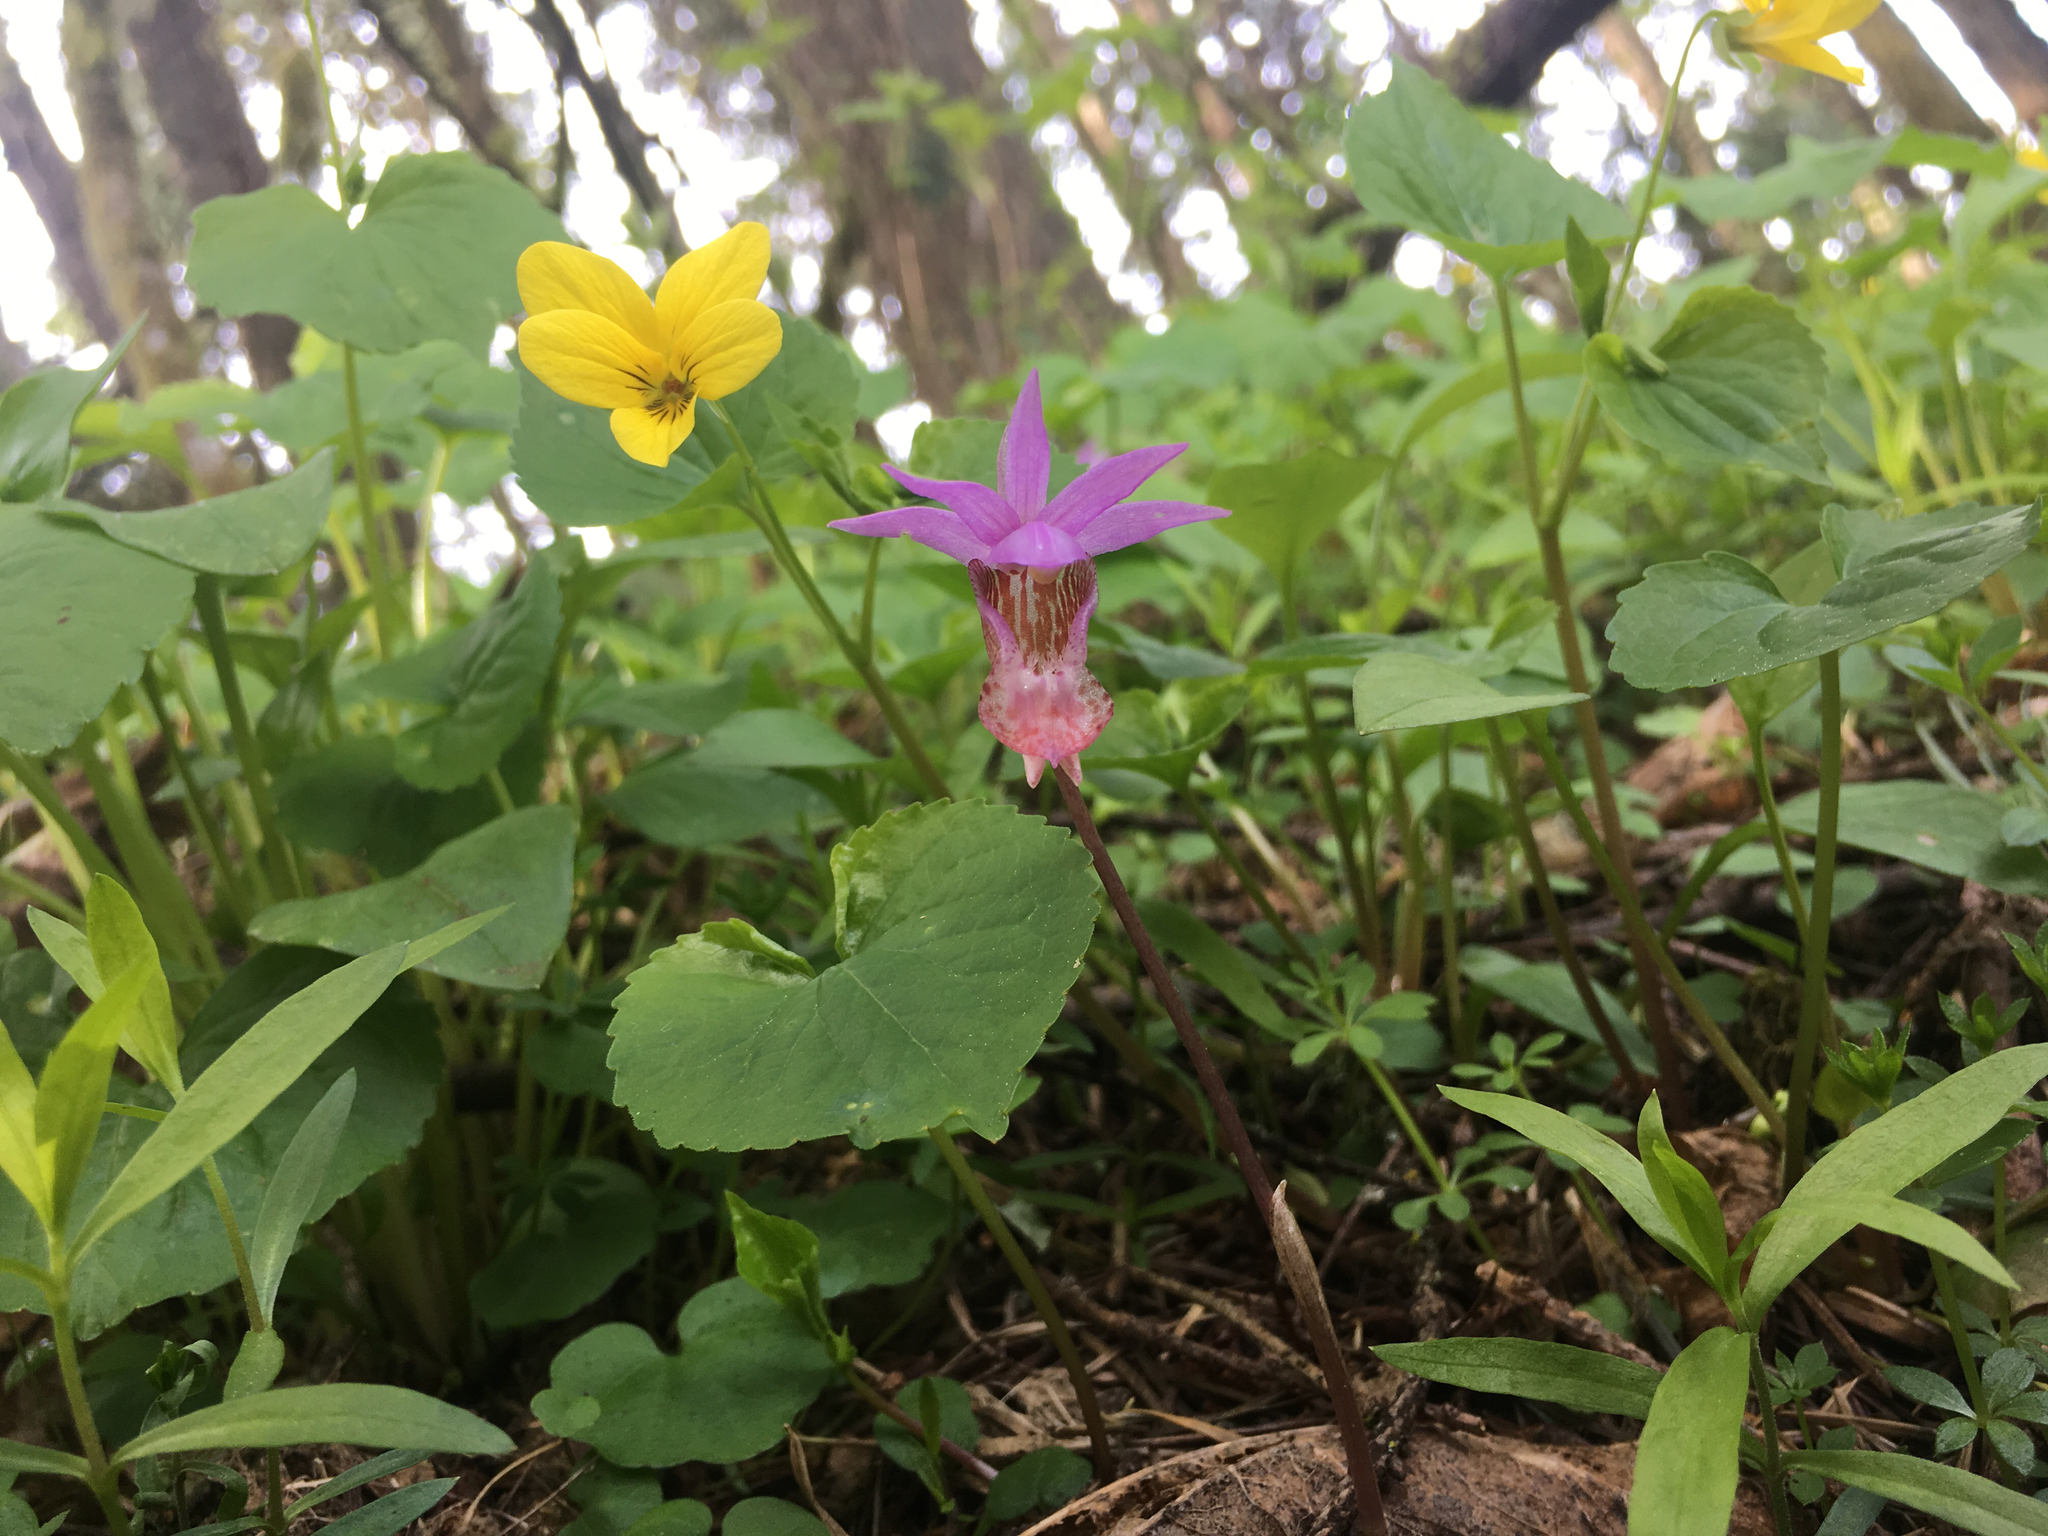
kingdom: Plantae
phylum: Tracheophyta
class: Liliopsida
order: Asparagales
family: Orchidaceae
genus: Calypso
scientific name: Calypso bulbosa
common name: Calypso
